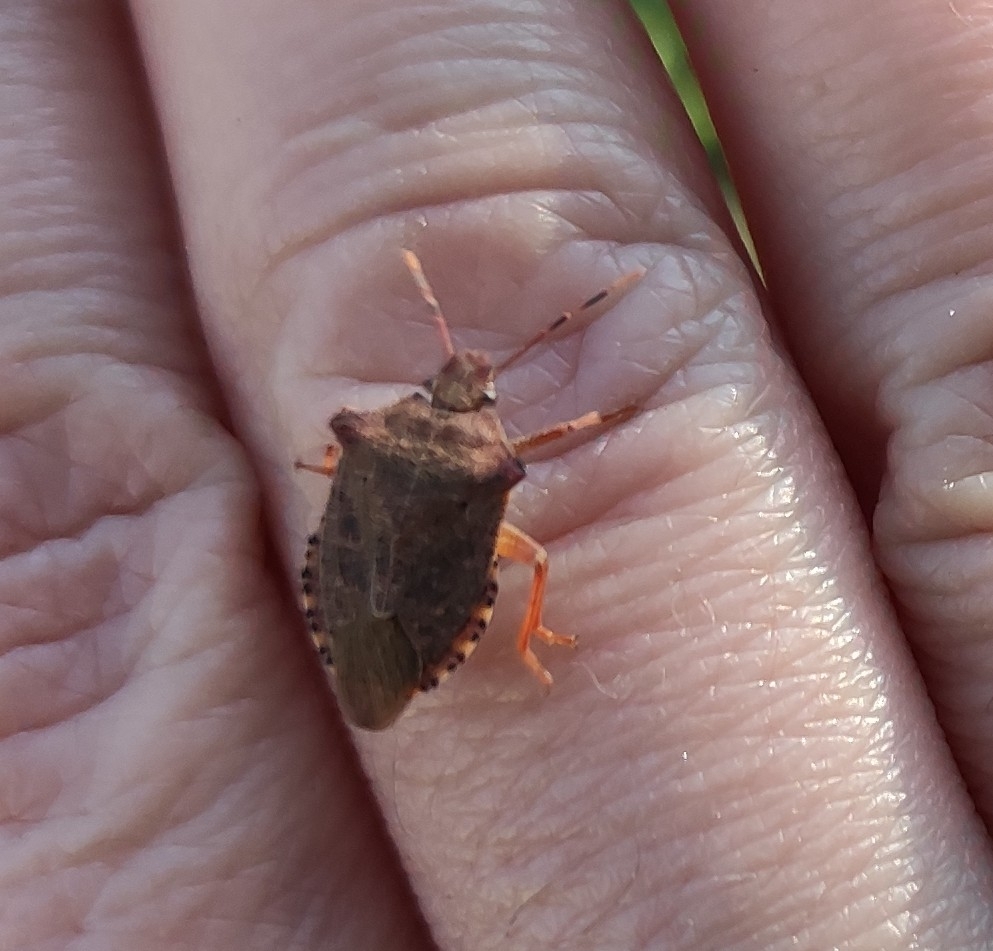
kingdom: Animalia
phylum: Arthropoda
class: Insecta
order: Hemiptera
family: Pentatomidae
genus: Arma
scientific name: Arma custos
